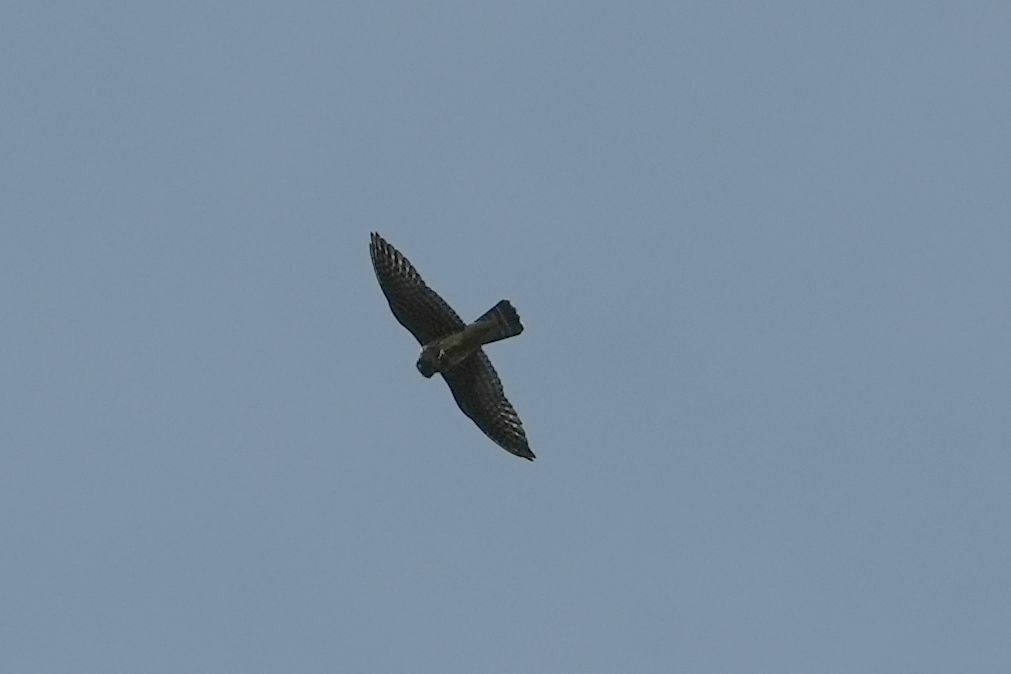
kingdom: Animalia
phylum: Chordata
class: Aves
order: Falconiformes
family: Falconidae
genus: Falco
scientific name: Falco columbarius
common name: Merlin
